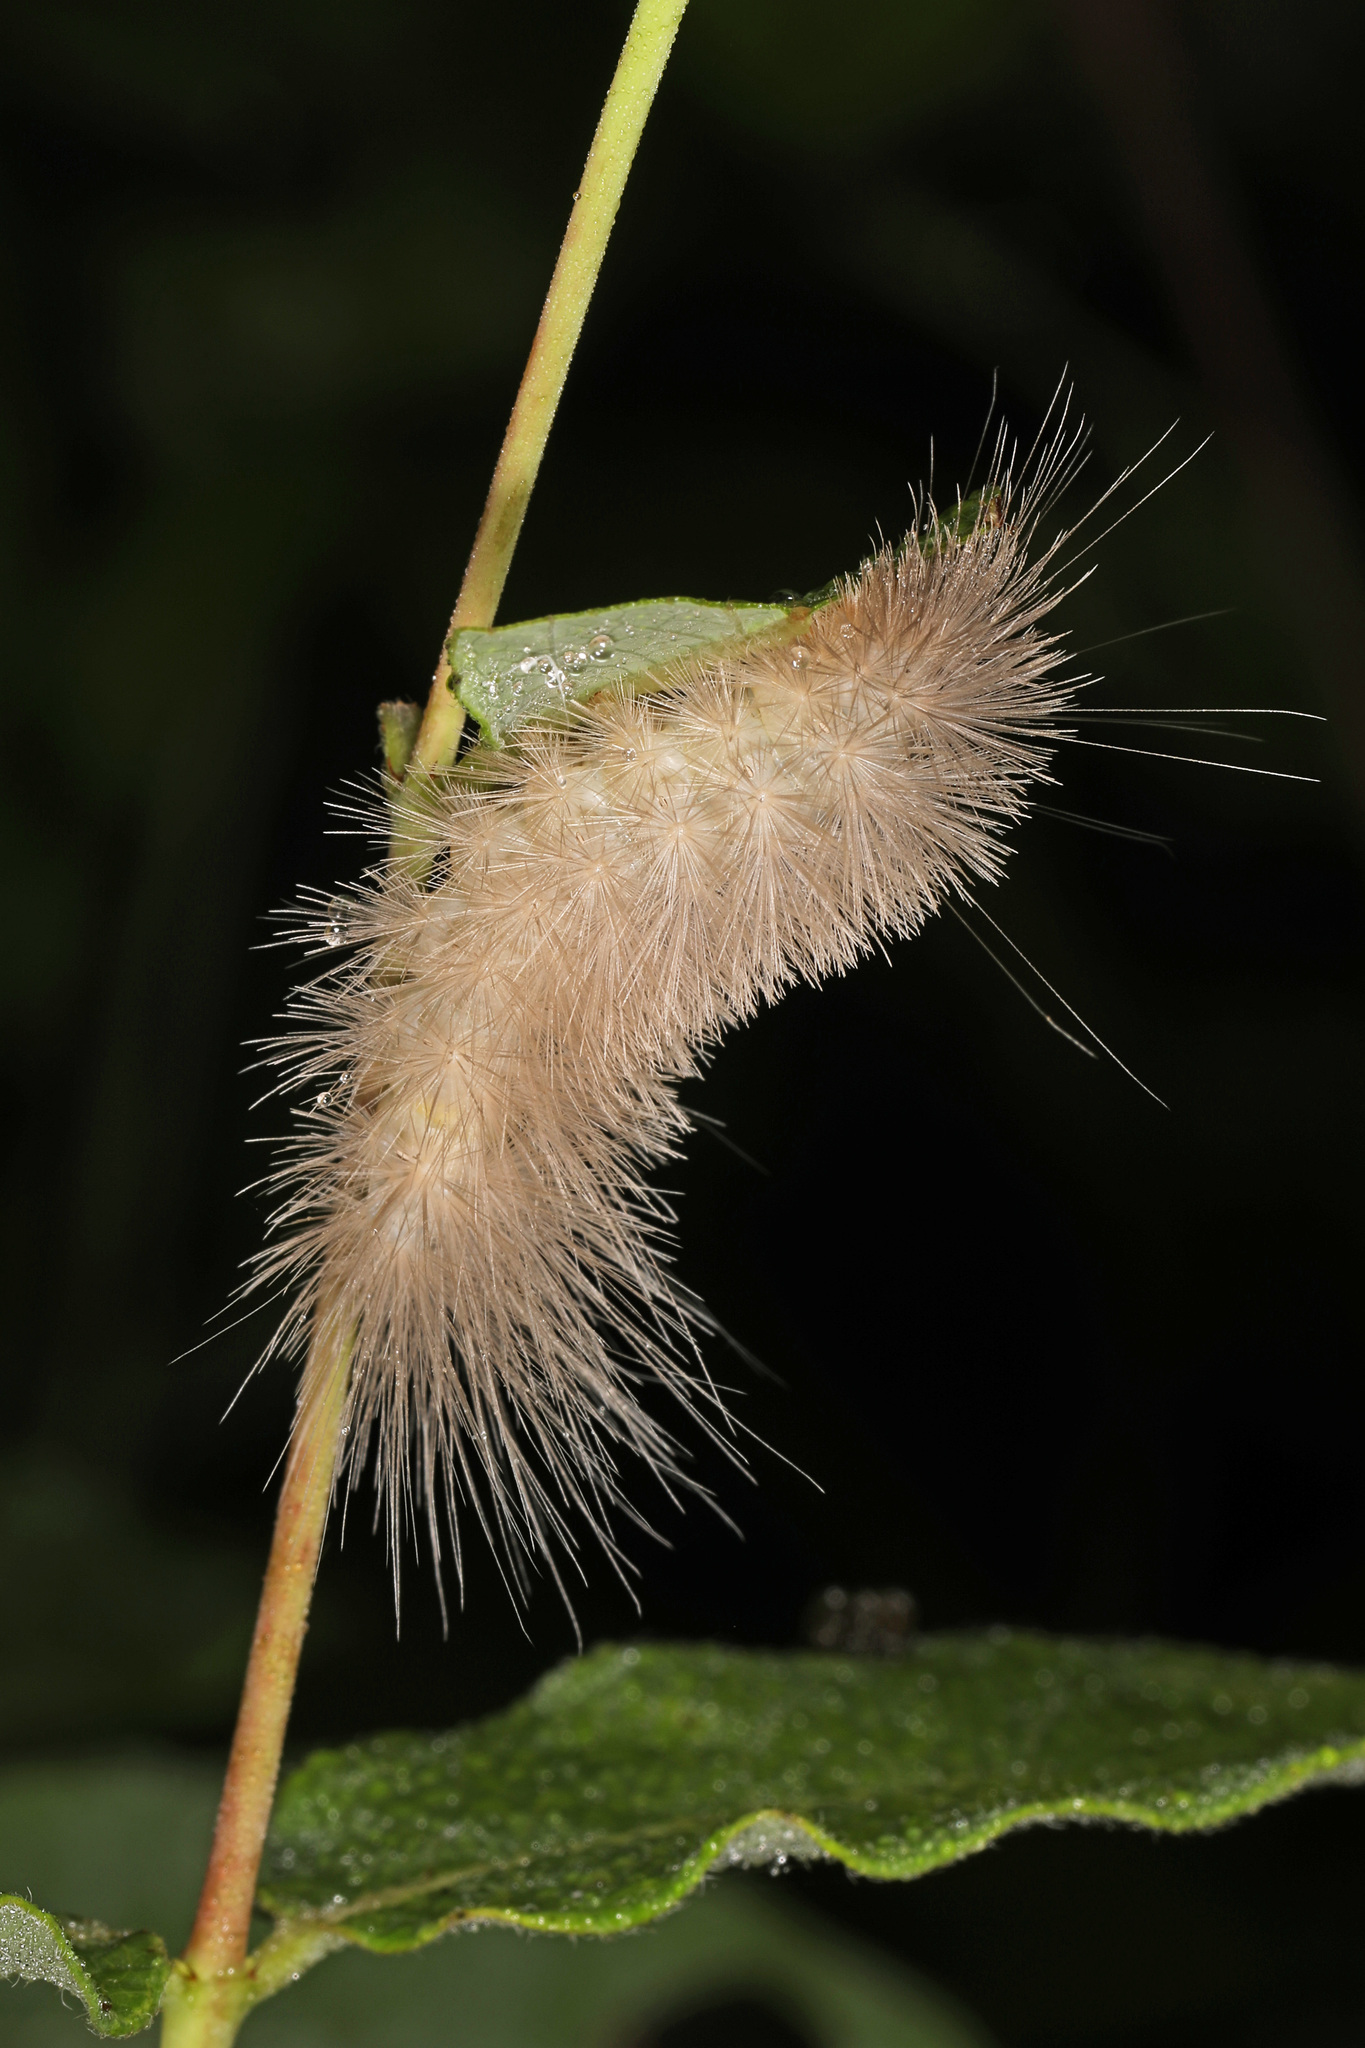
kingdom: Animalia
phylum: Arthropoda
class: Insecta
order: Lepidoptera
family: Erebidae
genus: Cycnia
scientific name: Cycnia tenera
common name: Delicate cycnia moth
